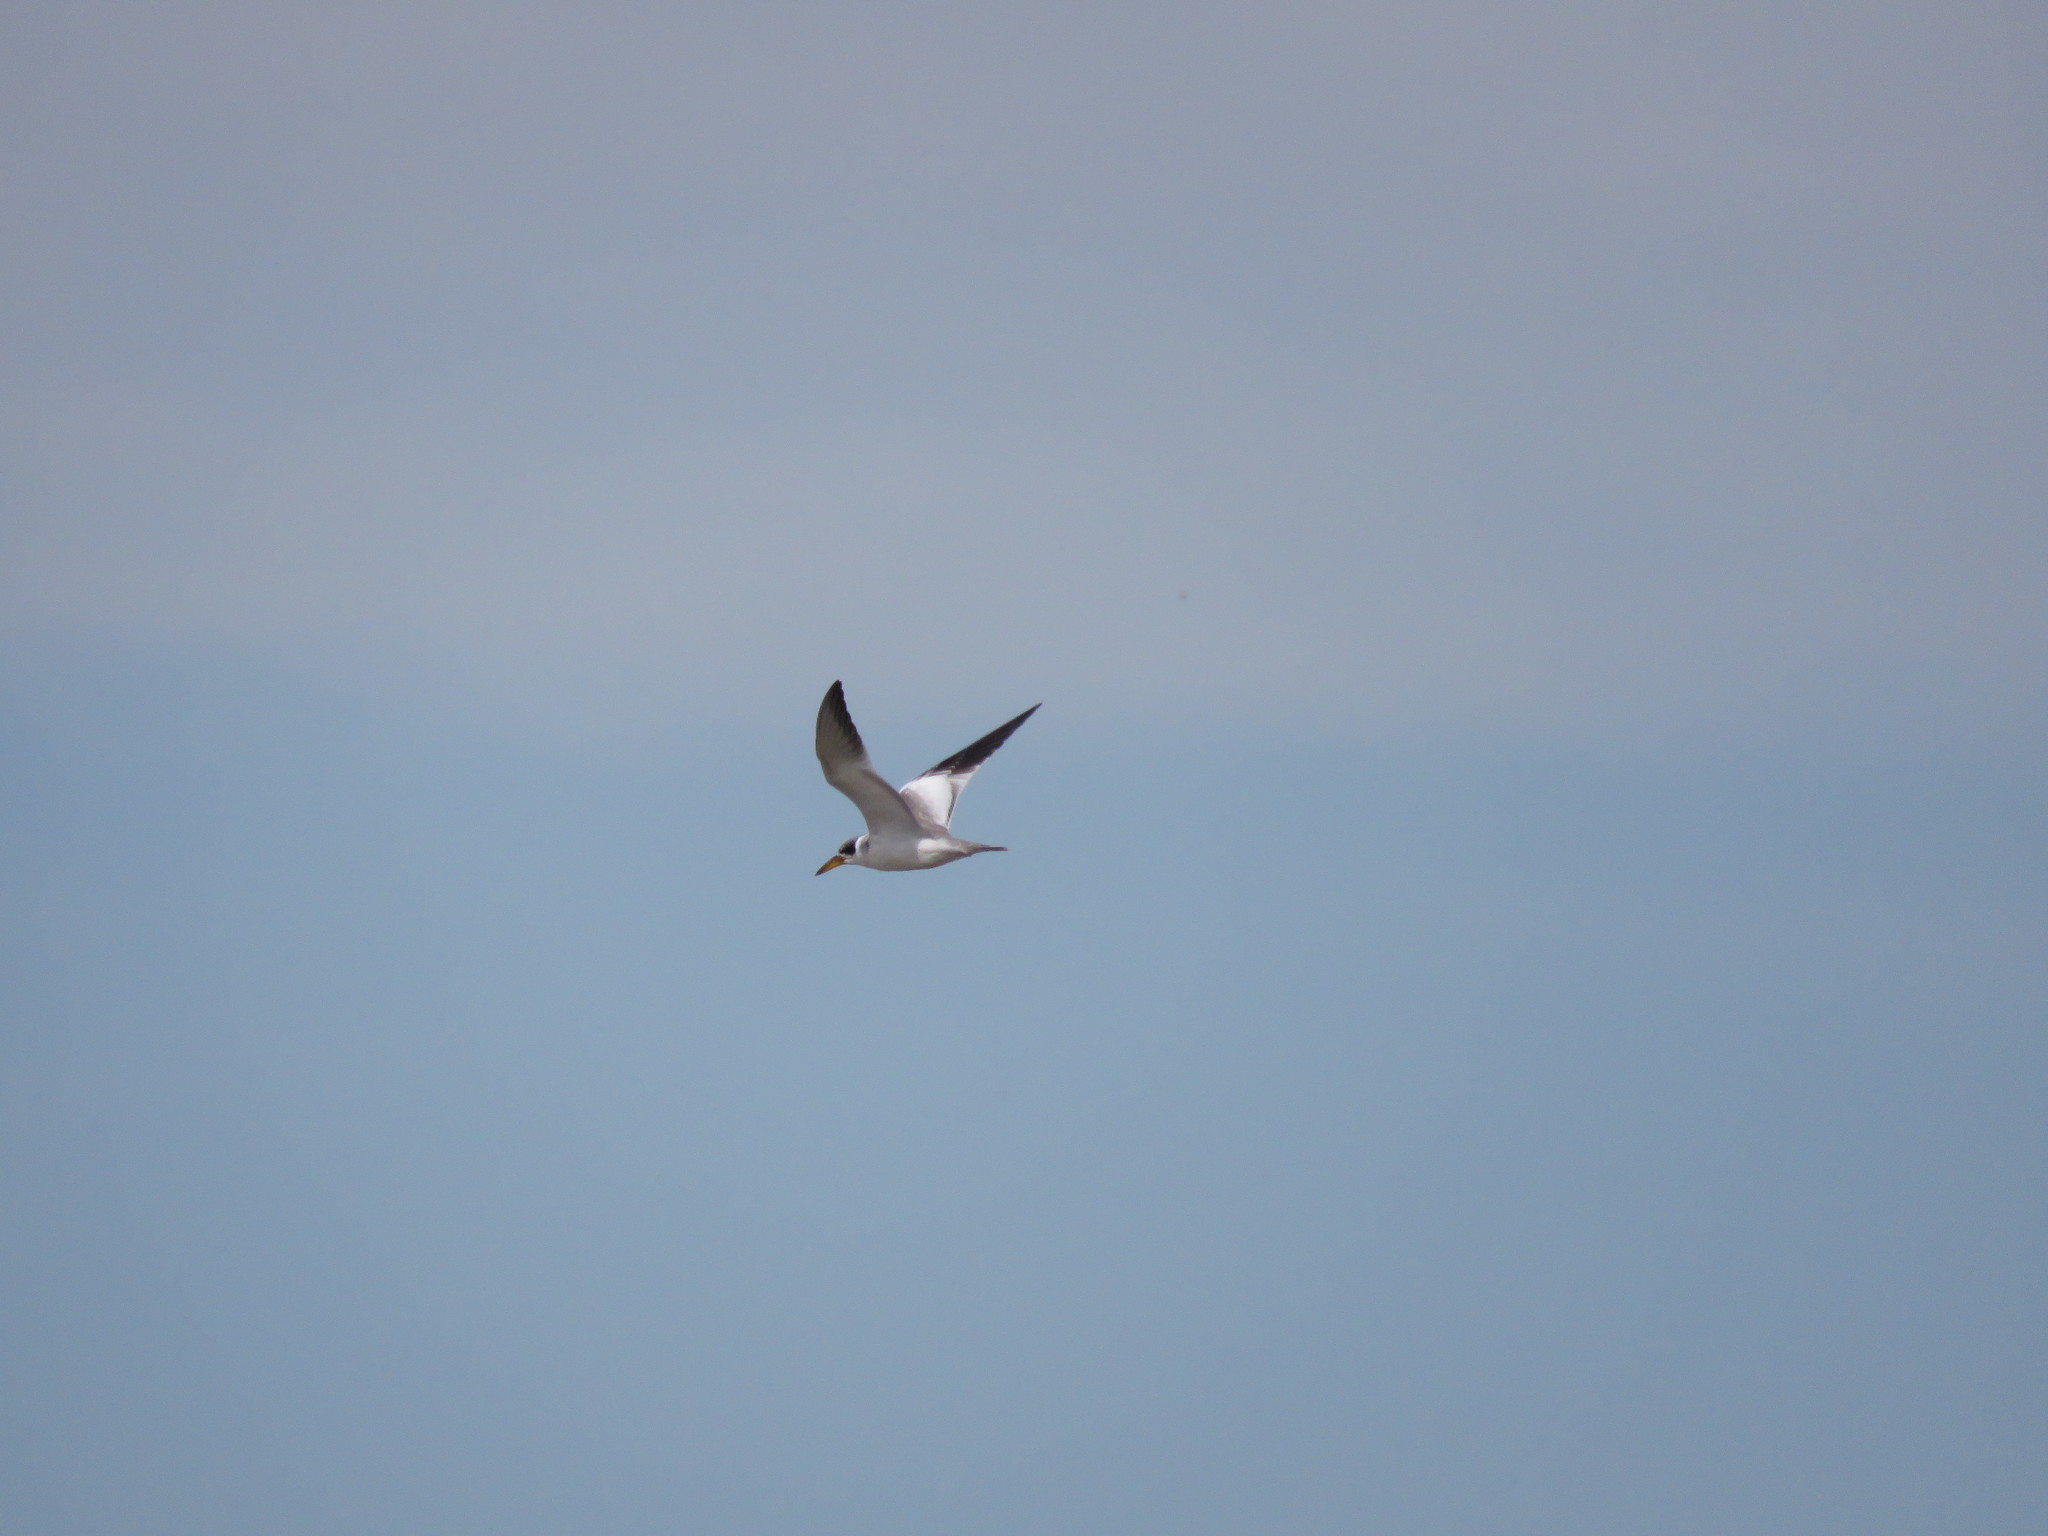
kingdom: Animalia
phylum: Chordata
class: Aves
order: Charadriiformes
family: Laridae
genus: Phaetusa
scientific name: Phaetusa simplex
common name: Large-billed tern
